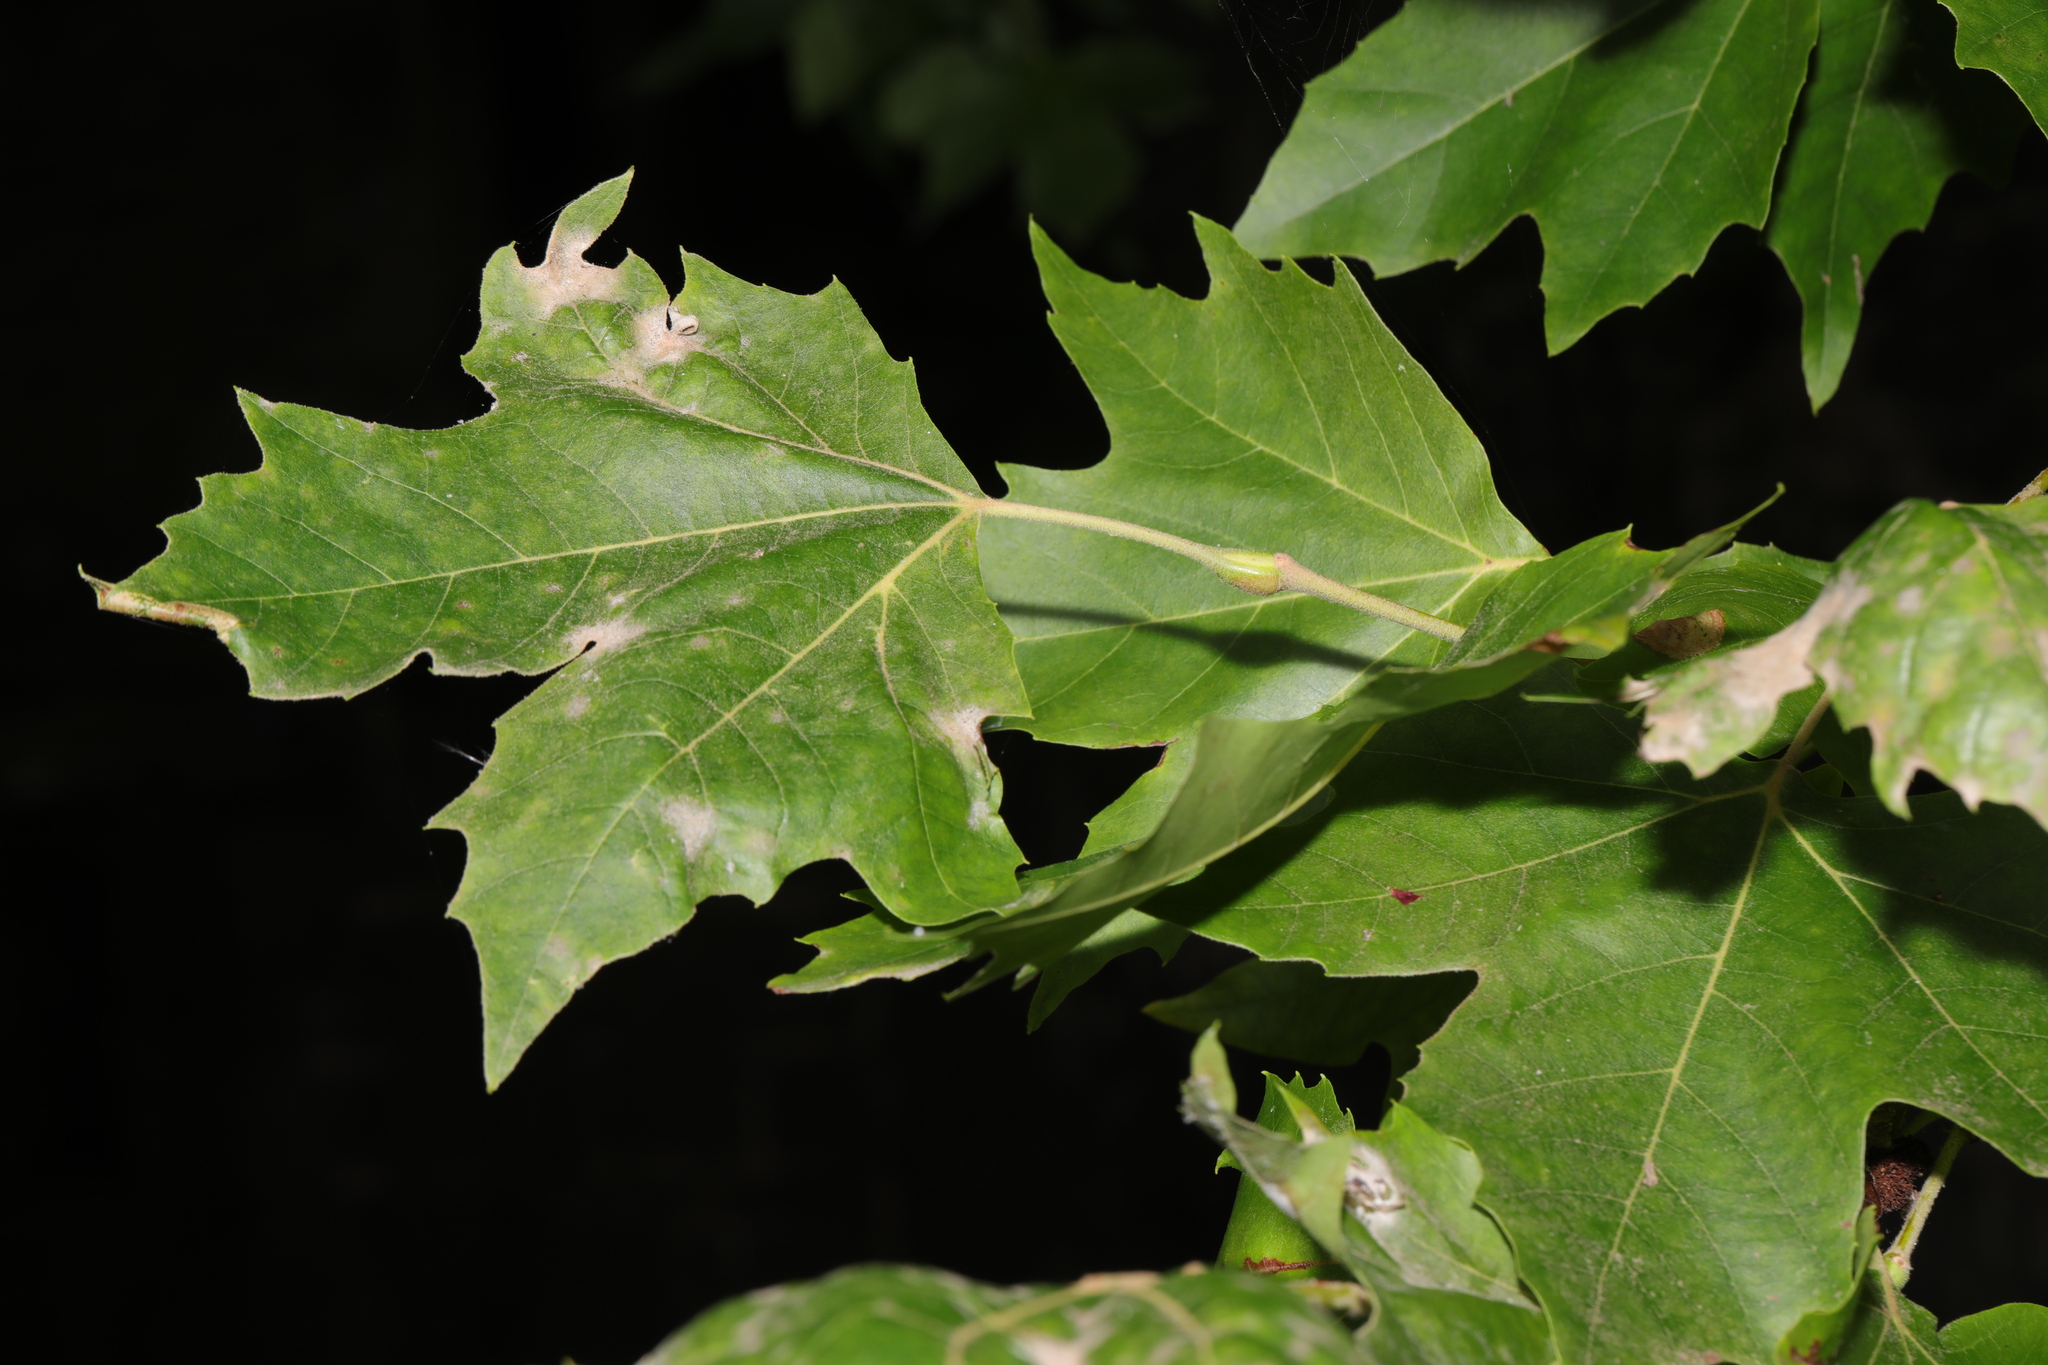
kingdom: Plantae
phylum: Tracheophyta
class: Magnoliopsida
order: Proteales
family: Platanaceae
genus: Platanus
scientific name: Platanus hispanica
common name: London plane
